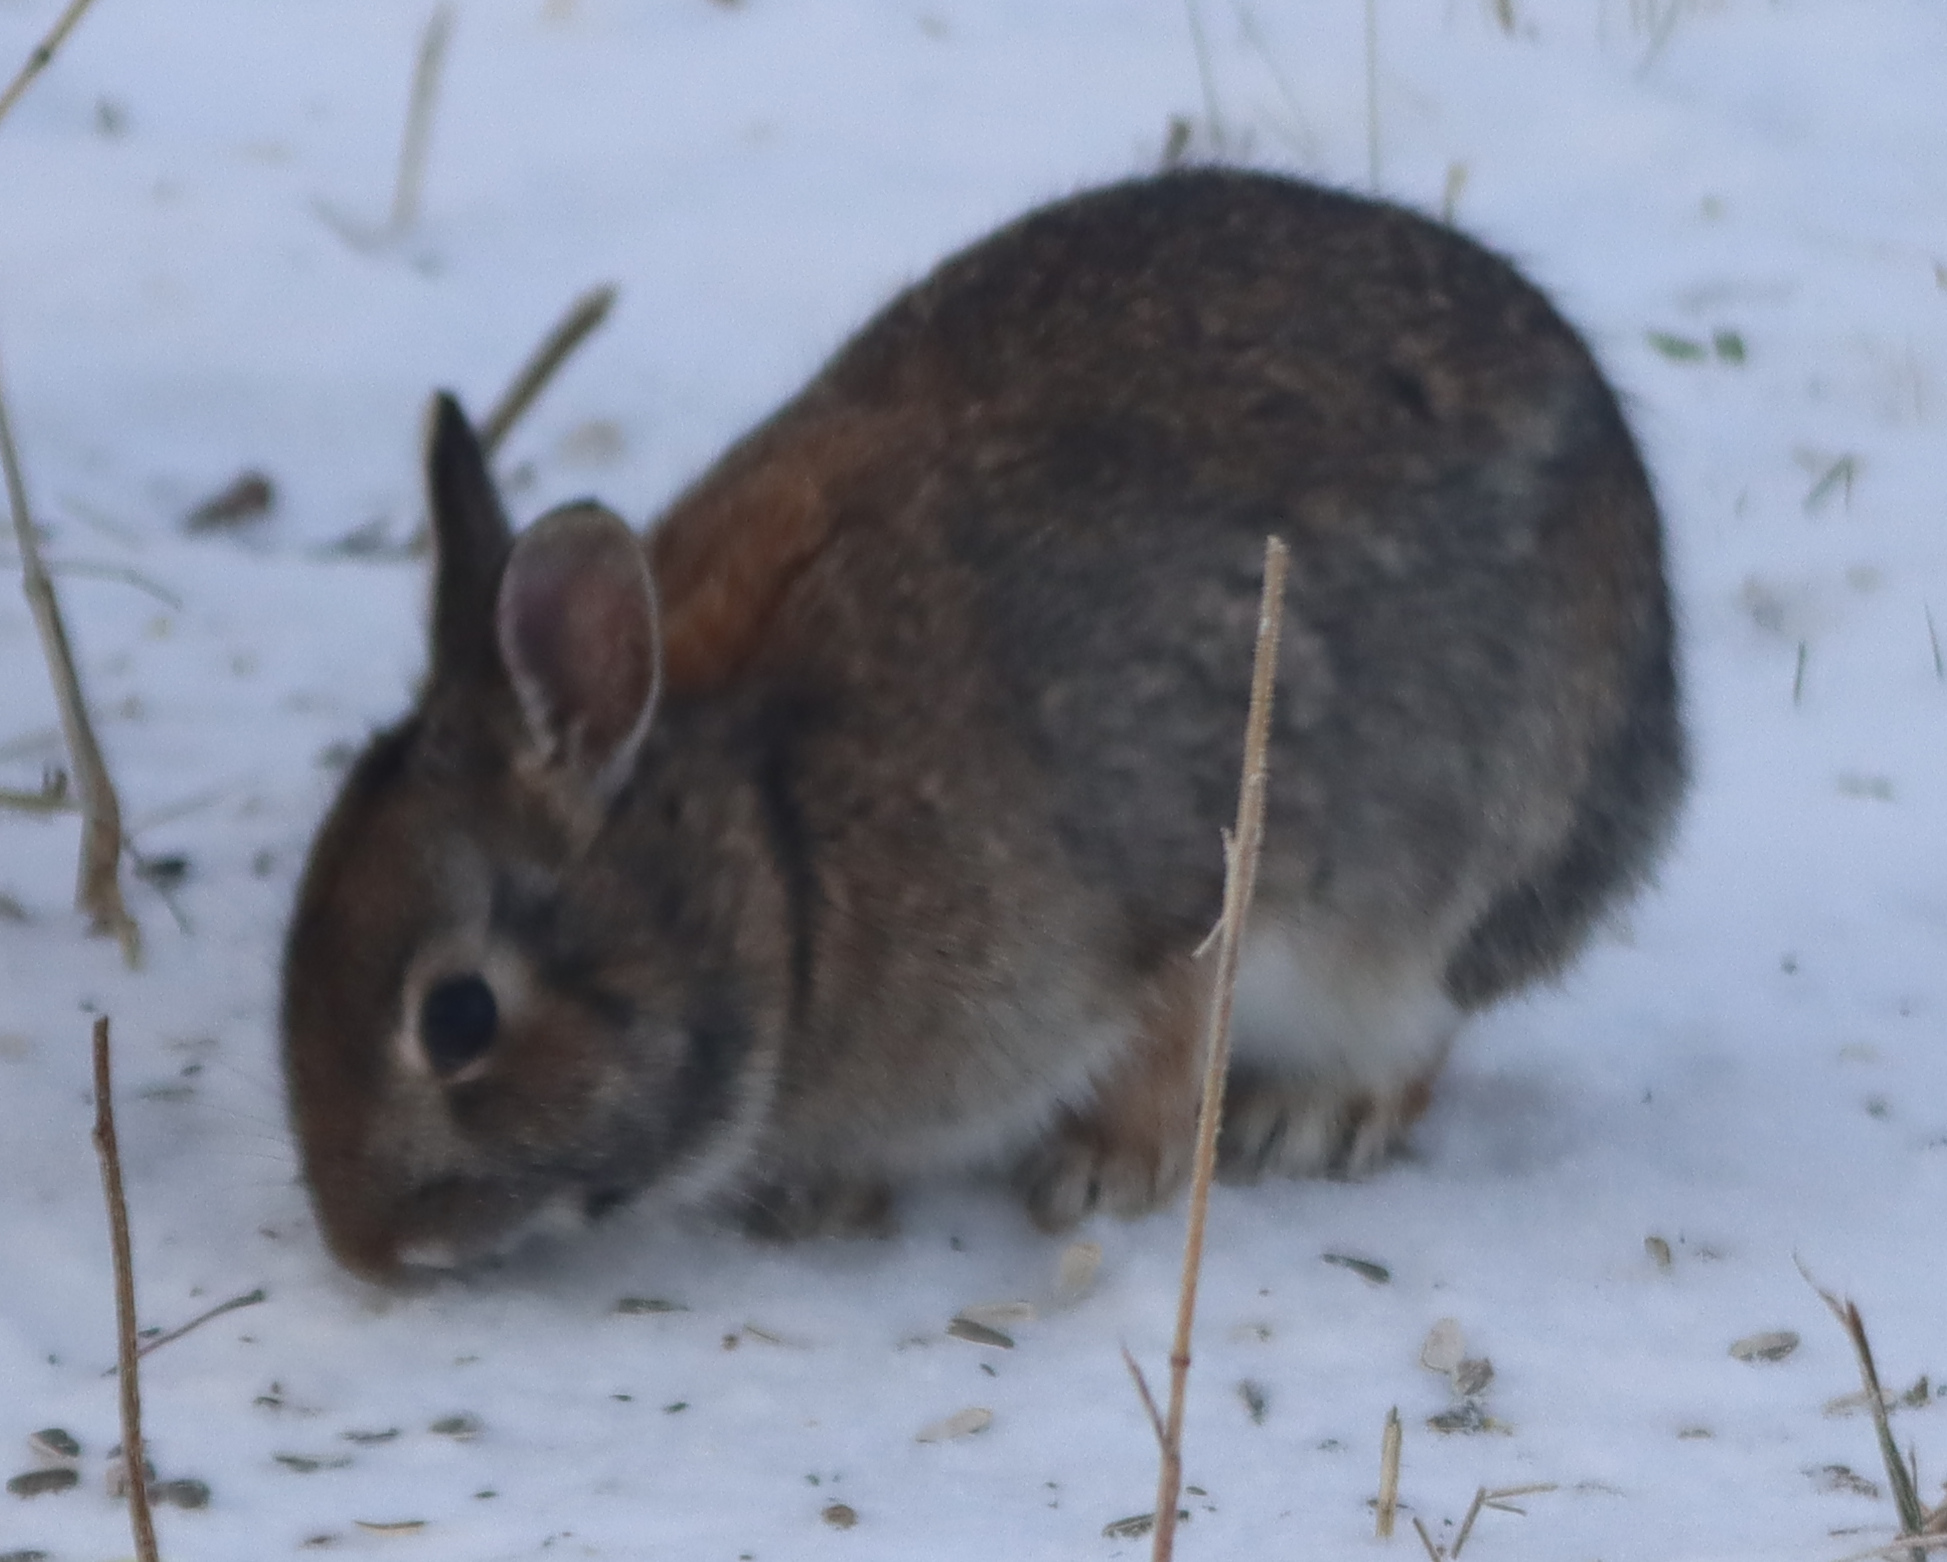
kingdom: Animalia
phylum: Chordata
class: Mammalia
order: Lagomorpha
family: Leporidae
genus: Sylvilagus
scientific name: Sylvilagus floridanus
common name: Eastern cottontail
